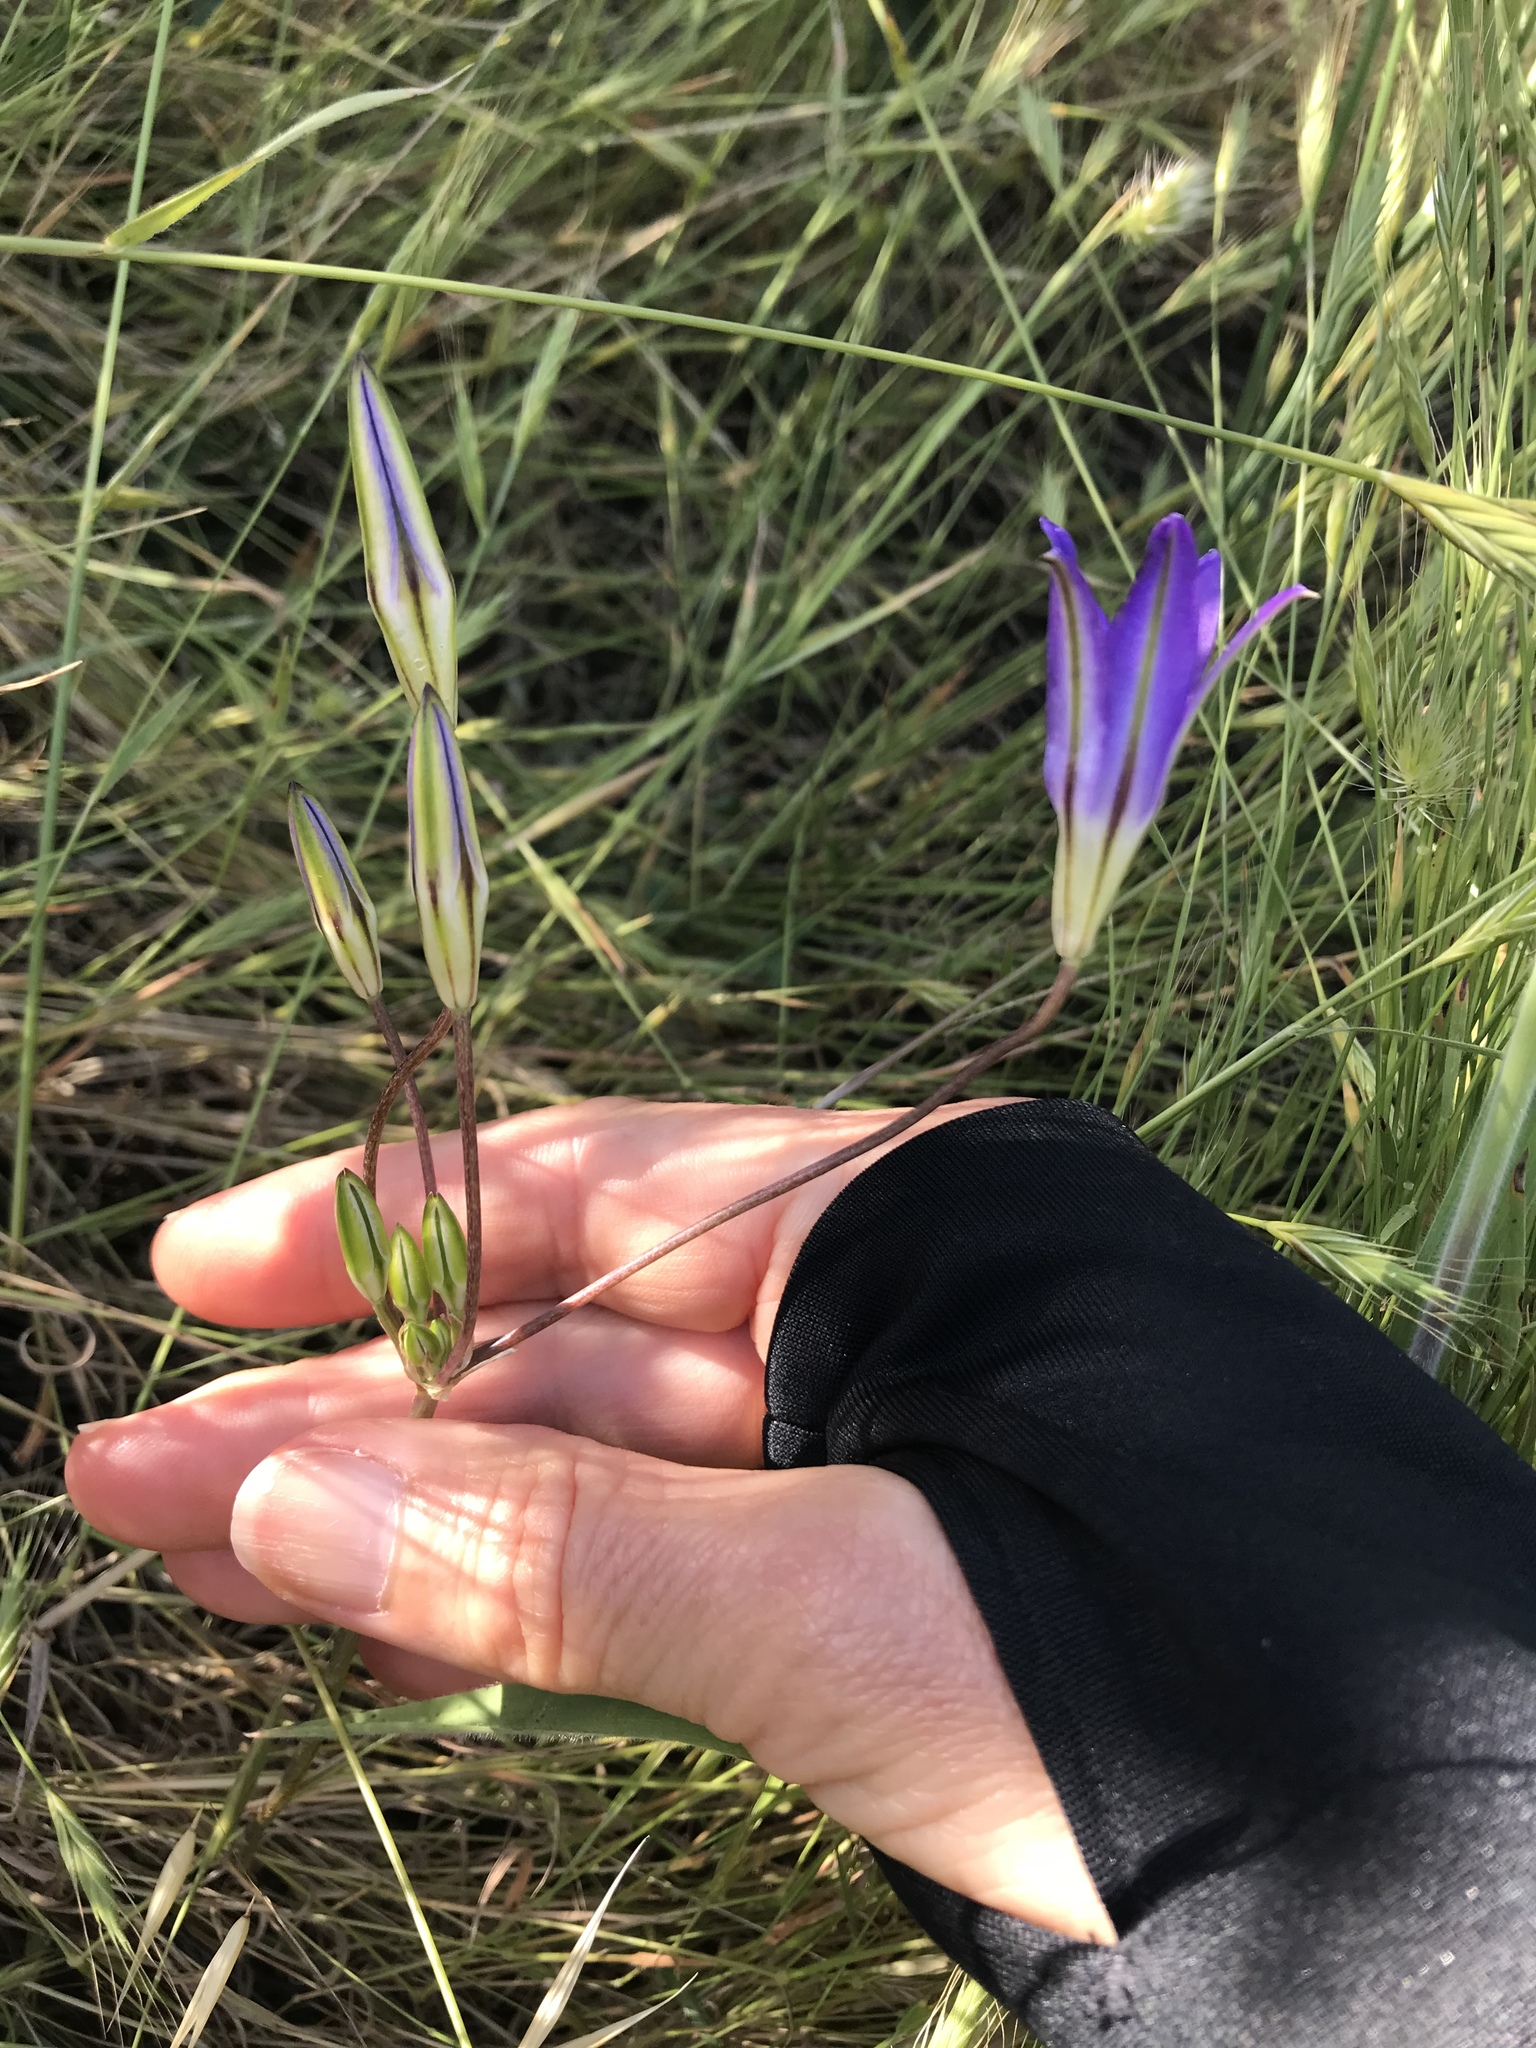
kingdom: Plantae
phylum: Tracheophyta
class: Liliopsida
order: Asparagales
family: Asparagaceae
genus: Brodiaea
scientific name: Brodiaea elegans
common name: Elegant cluster-lily
